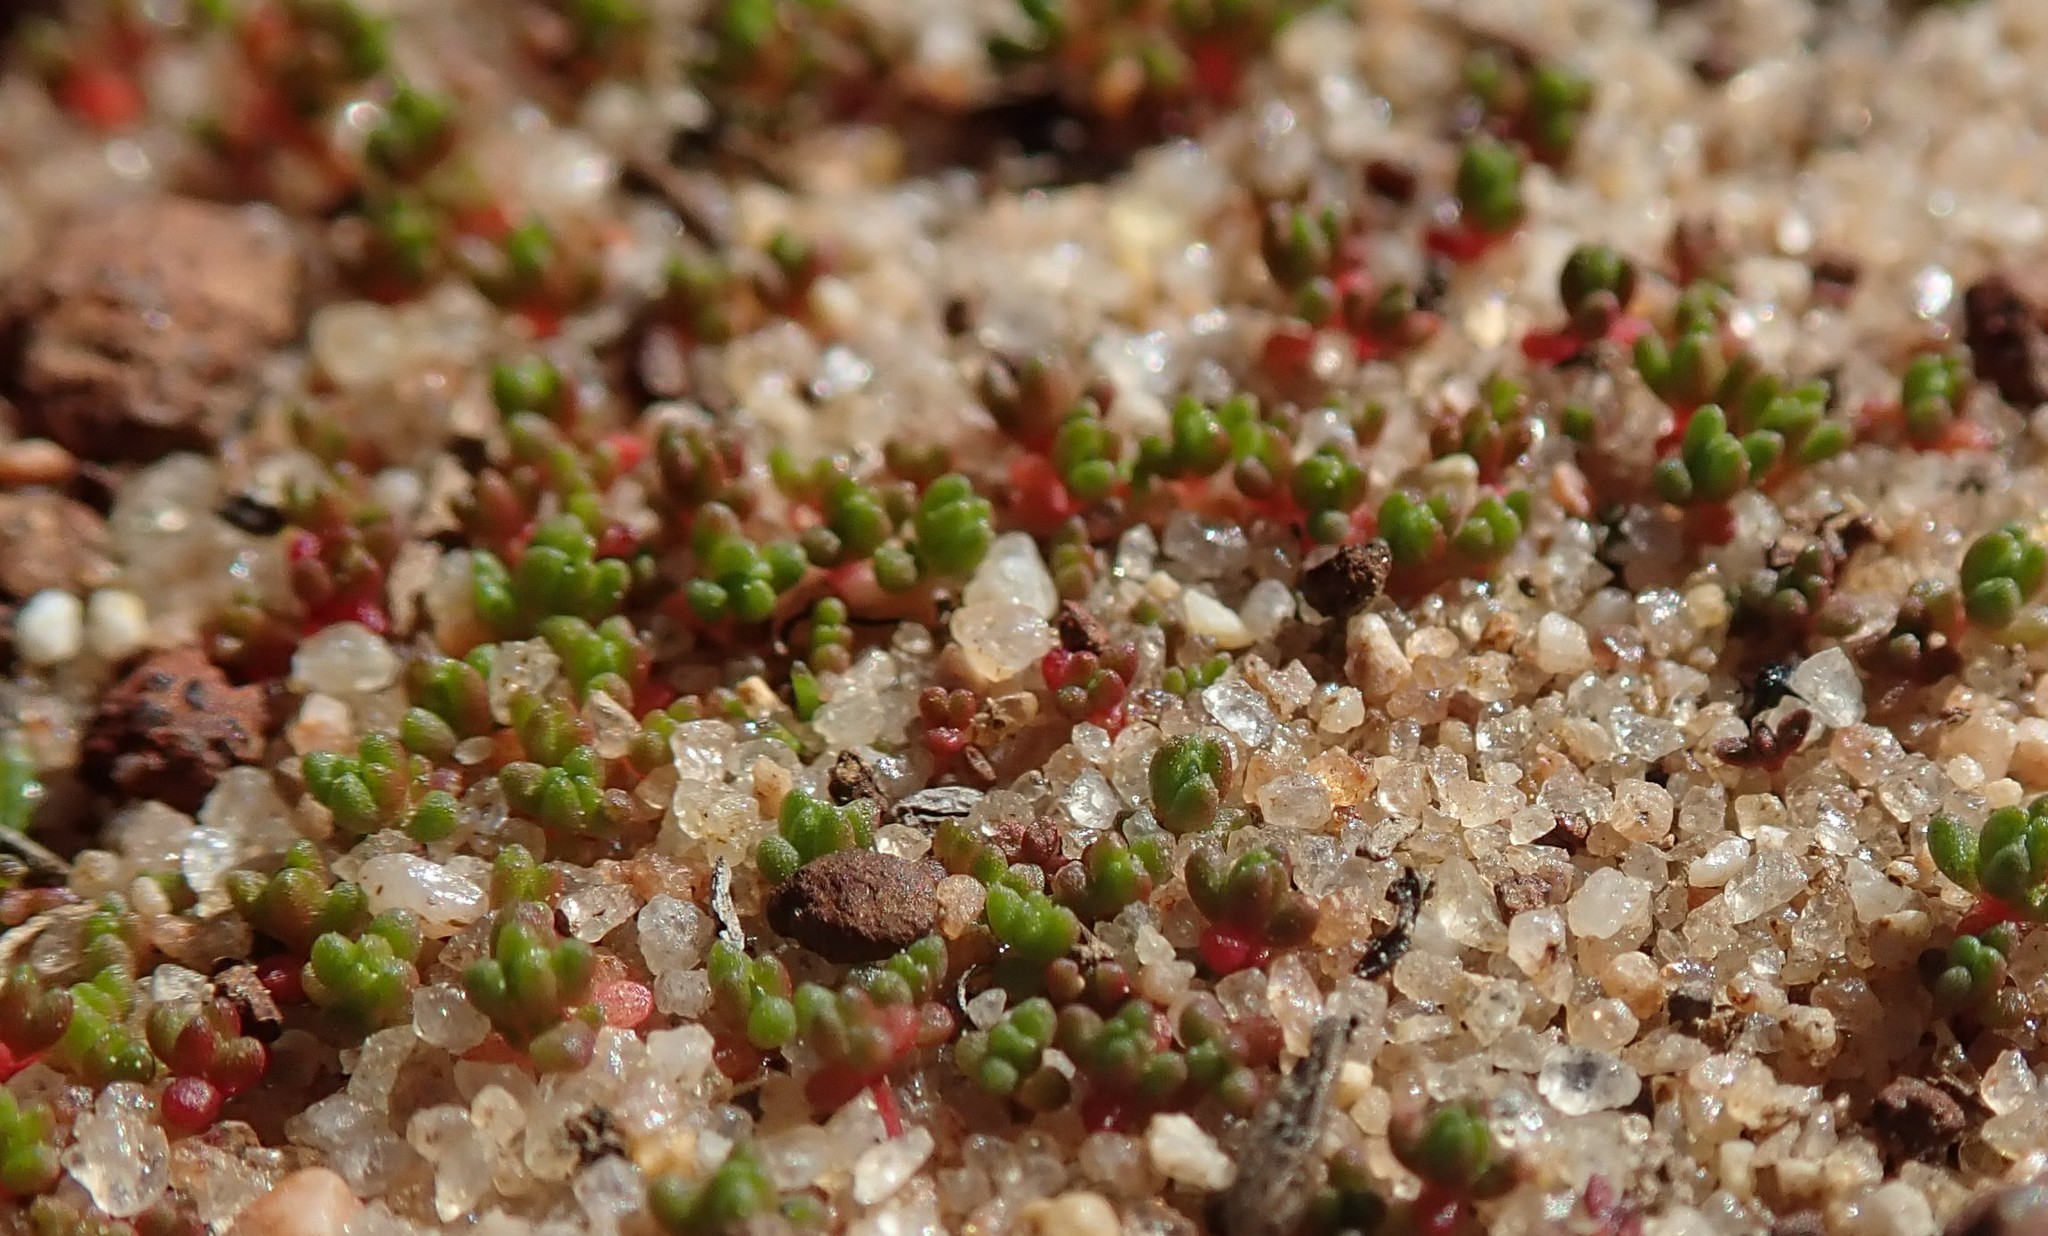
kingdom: Plantae
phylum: Tracheophyta
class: Magnoliopsida
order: Saxifragales
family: Crassulaceae
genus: Crassula
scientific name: Crassula connata
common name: Erect pygmyweed
